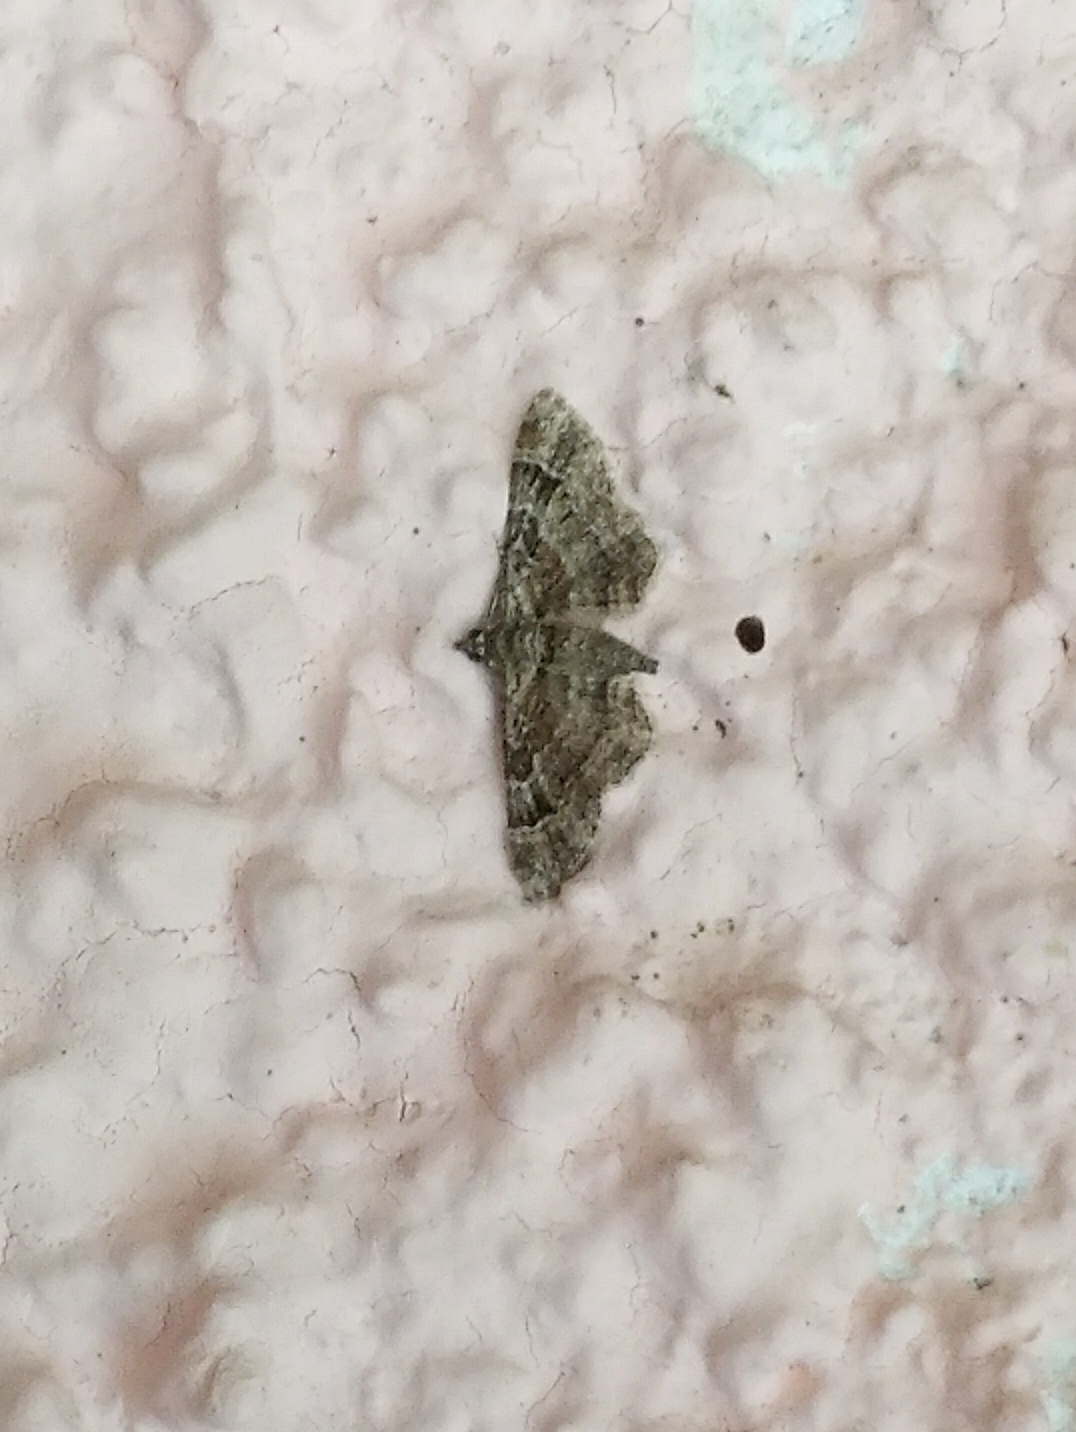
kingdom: Animalia
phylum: Arthropoda
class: Insecta
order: Lepidoptera
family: Geometridae
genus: Gymnoscelis
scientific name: Gymnoscelis rufifasciata
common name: Double-striped pug
